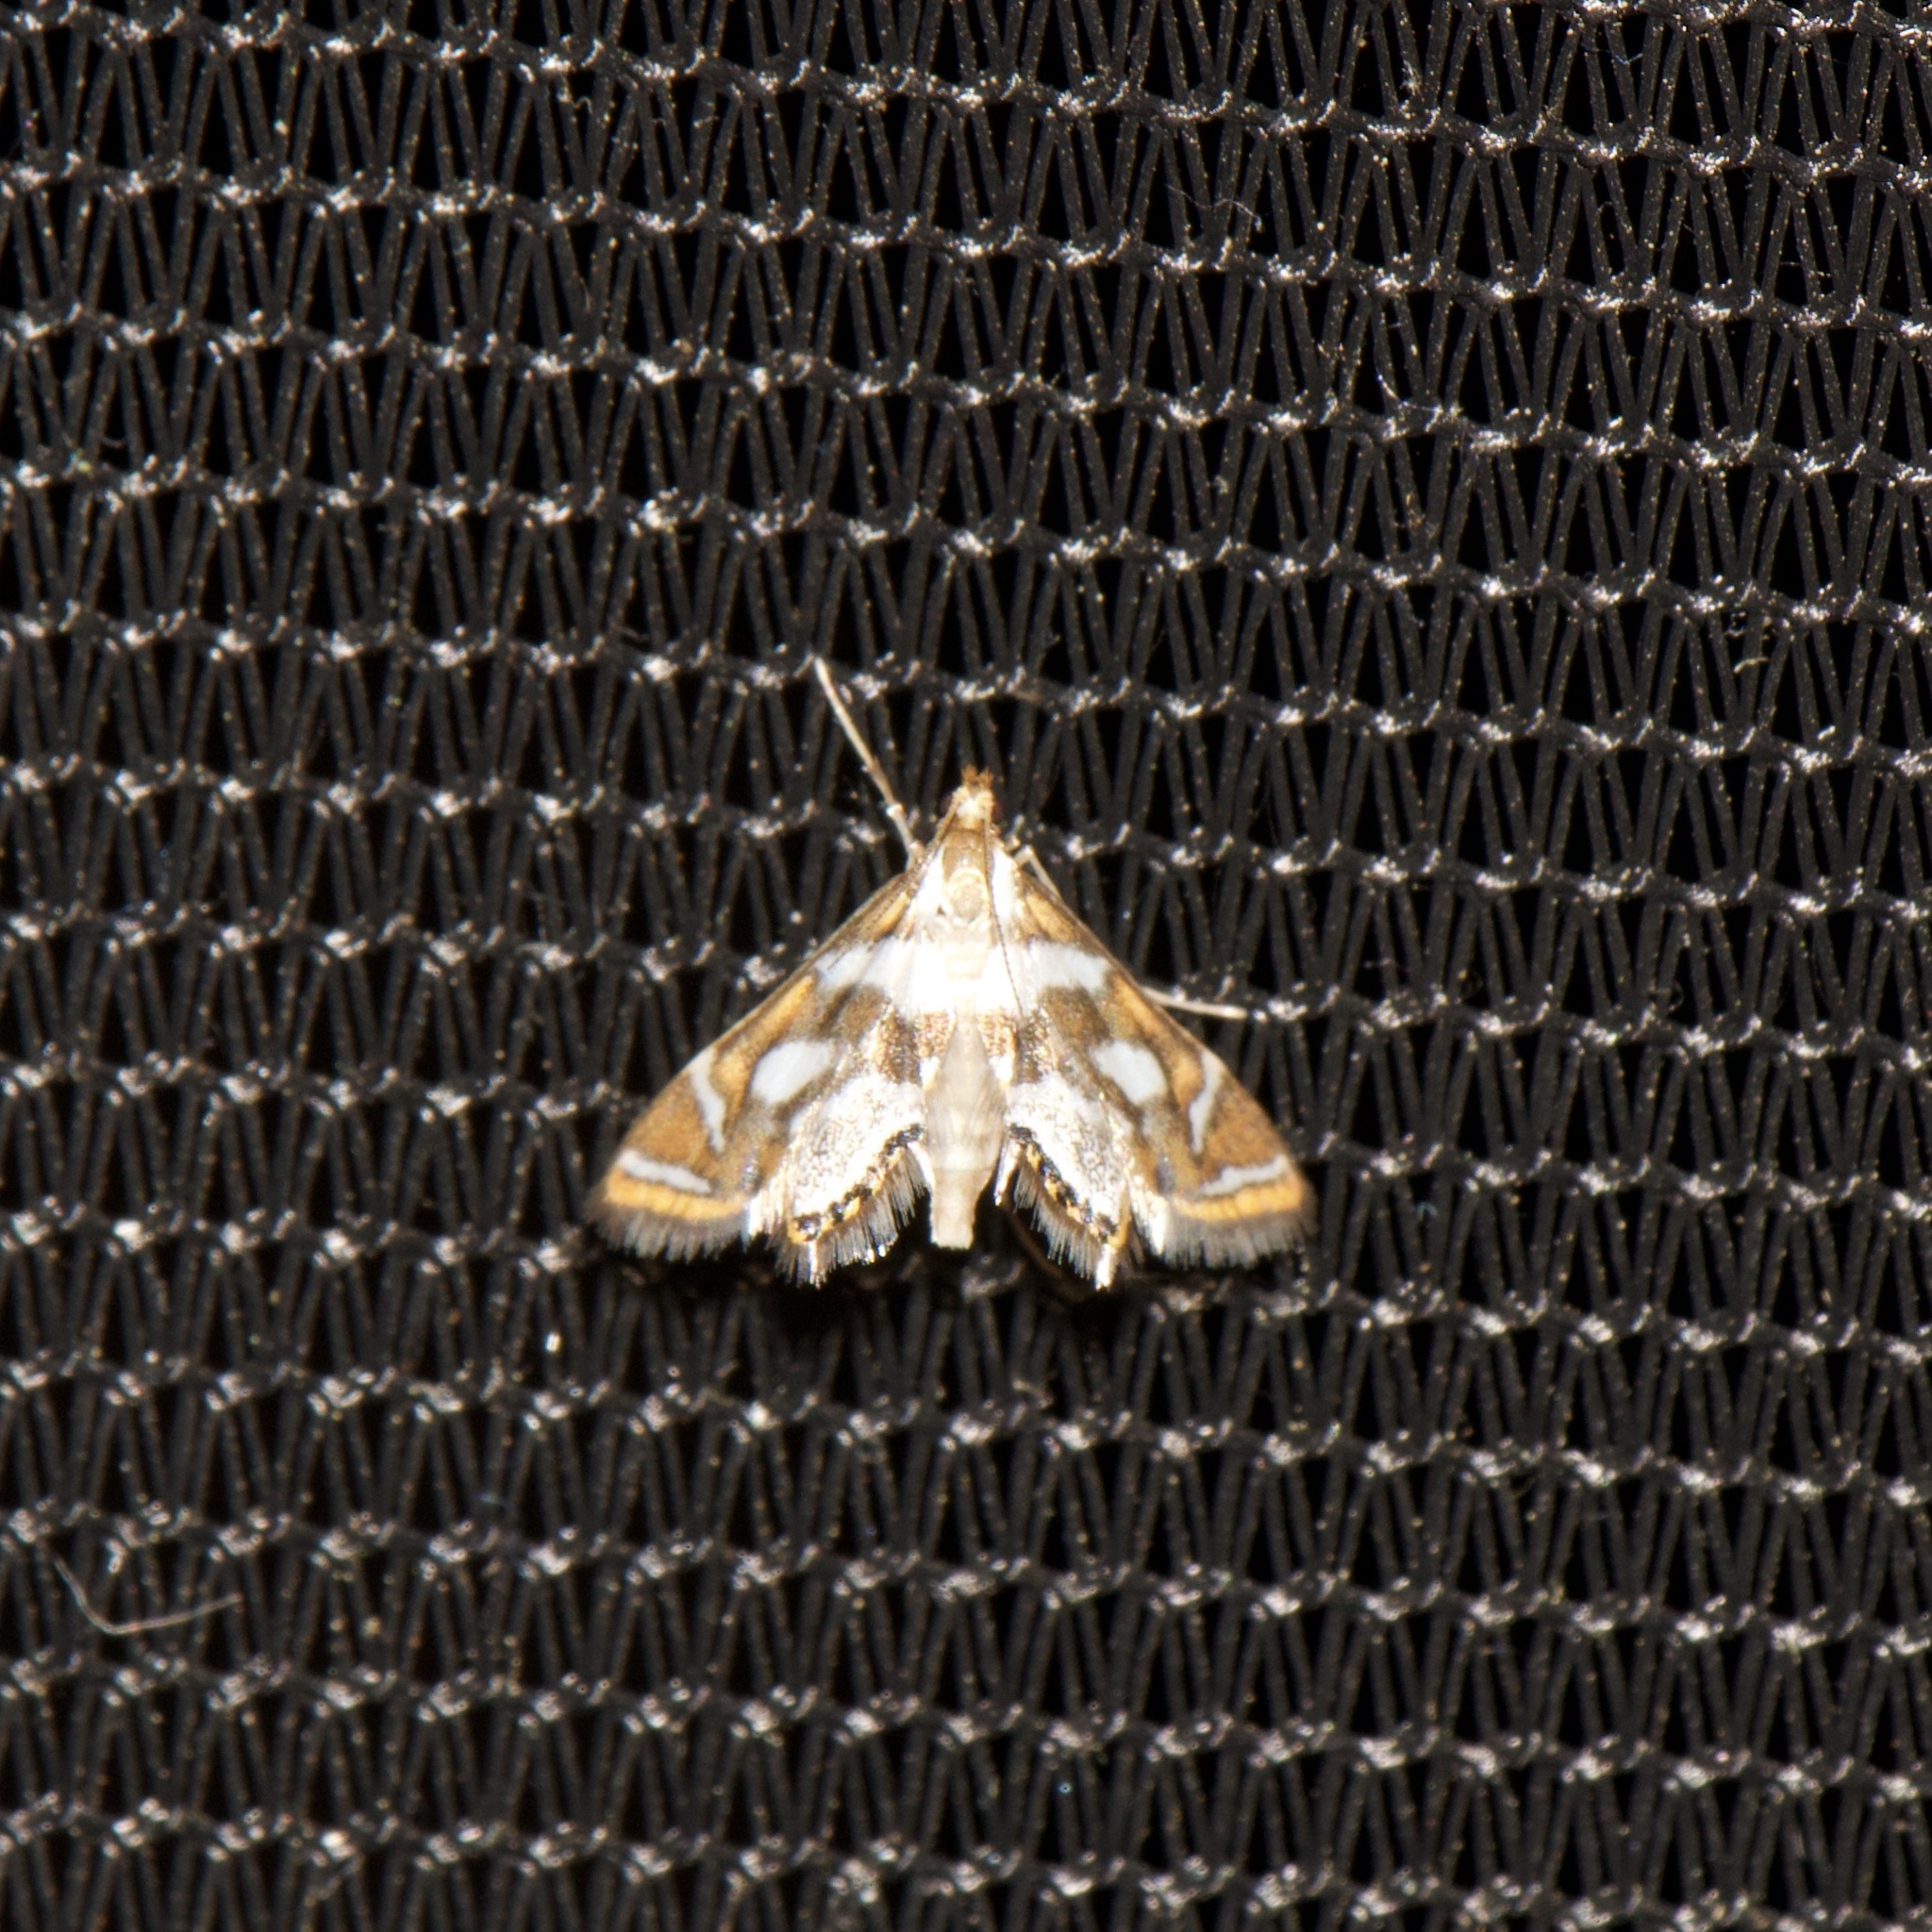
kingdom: Animalia
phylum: Arthropoda
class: Insecta
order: Lepidoptera
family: Crambidae
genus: Chrysendeton
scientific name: Chrysendeton medicinalis
